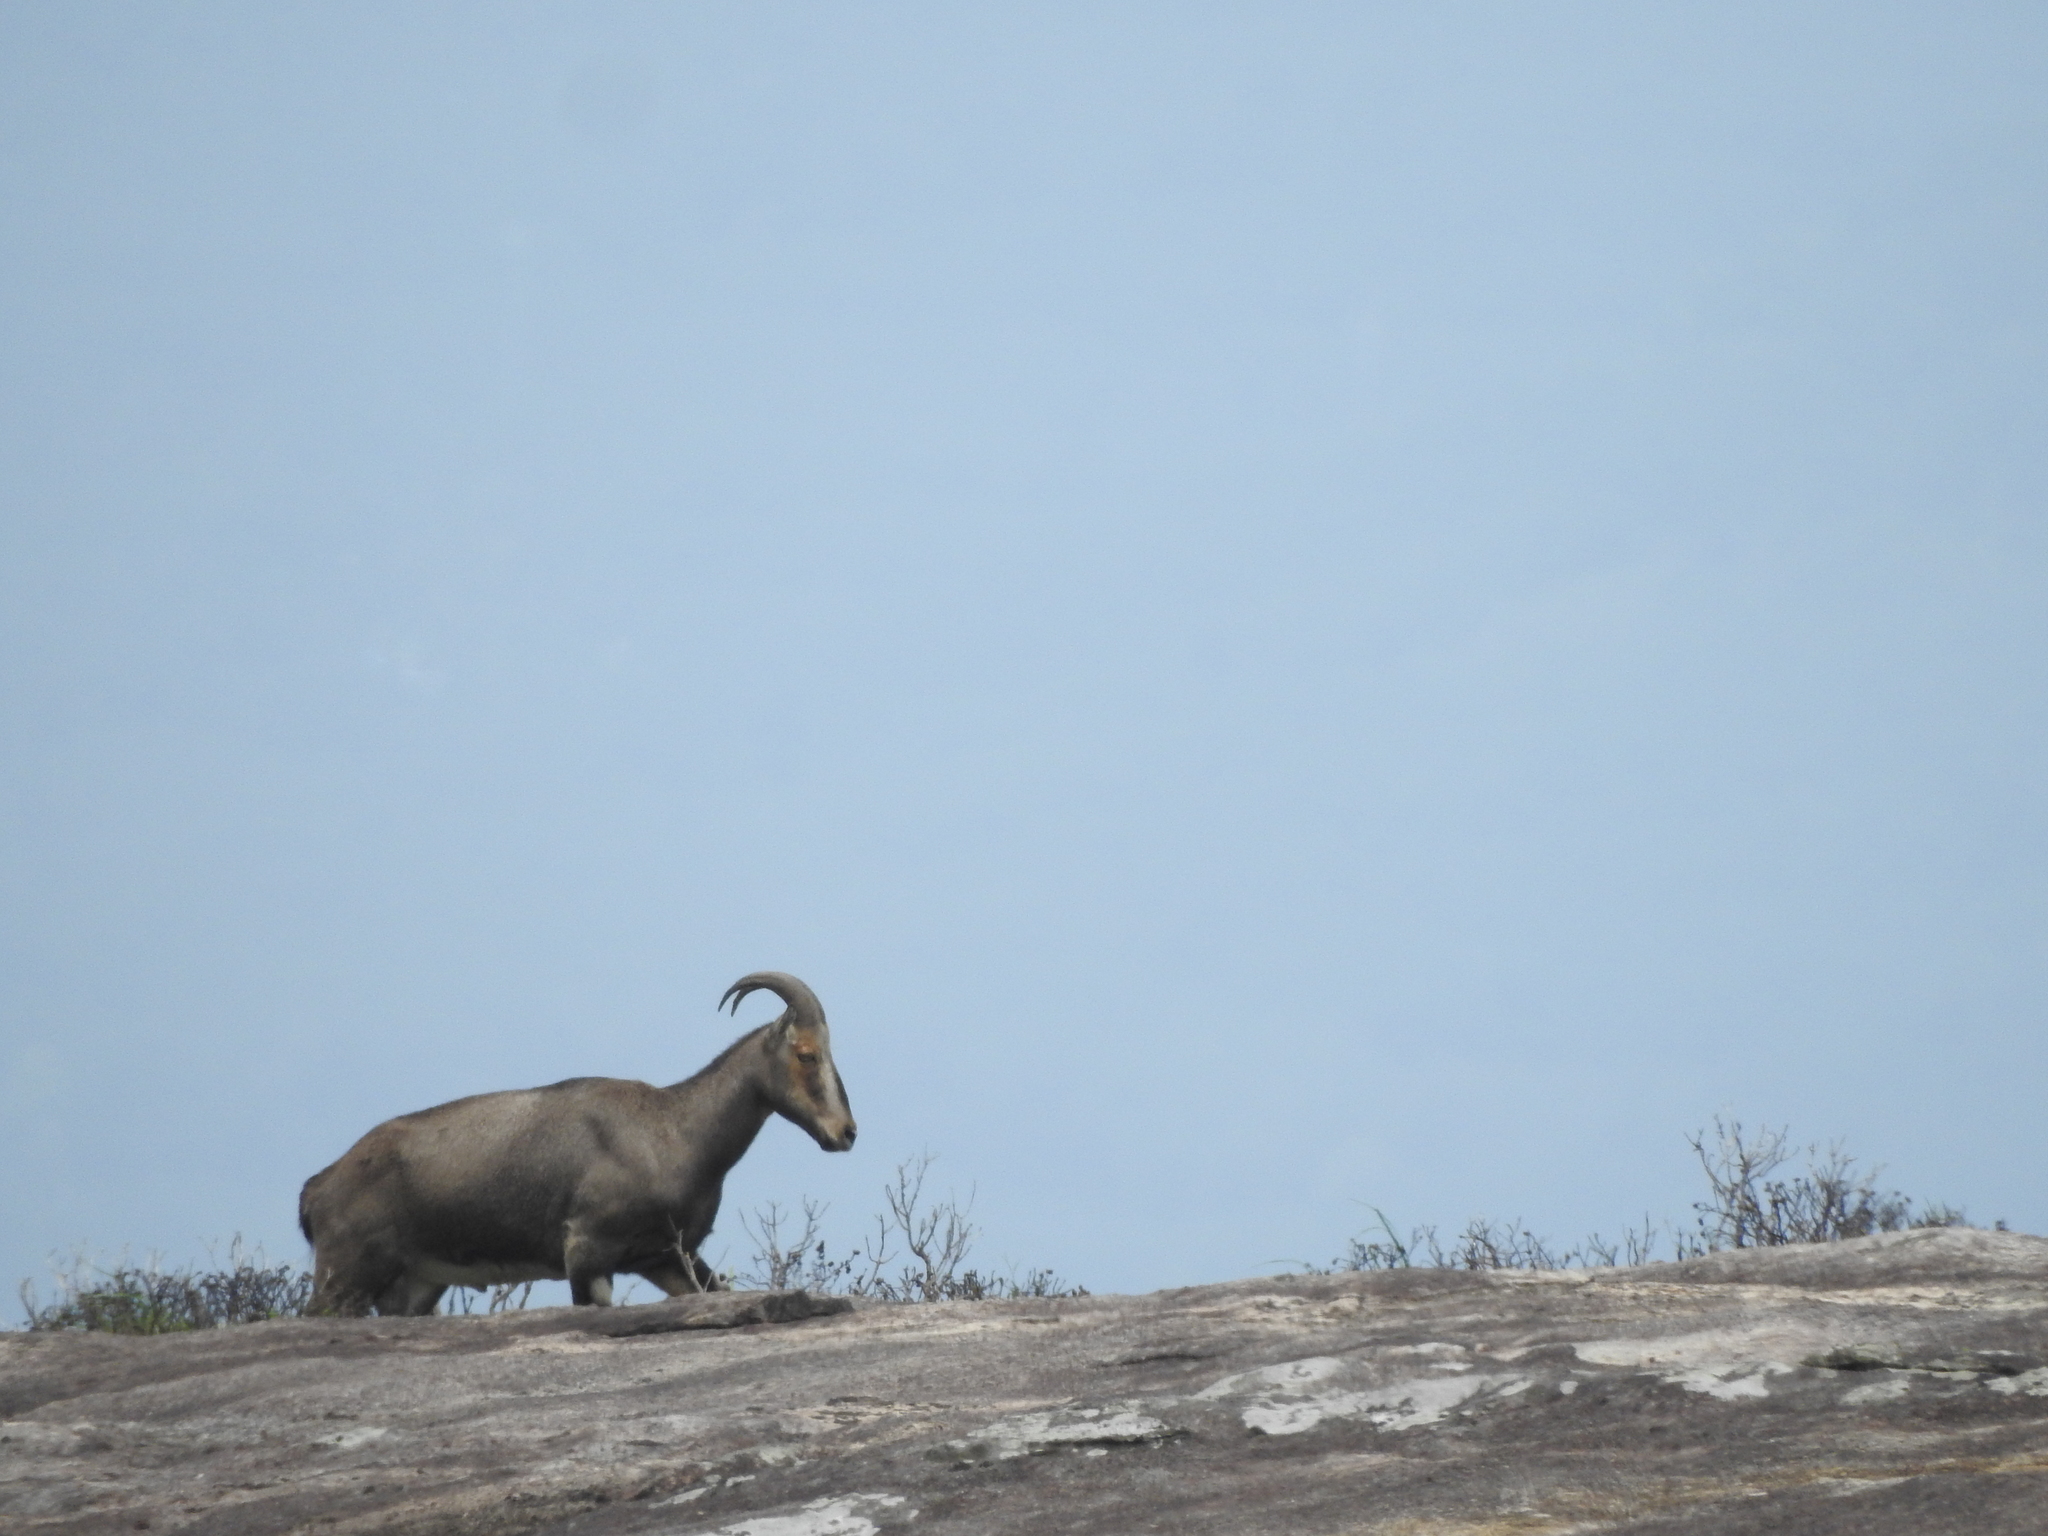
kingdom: Animalia
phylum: Chordata
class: Mammalia
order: Artiodactyla
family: Bovidae
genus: Hemitragus
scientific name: Hemitragus hylocrius
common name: Nilgiri tahr
